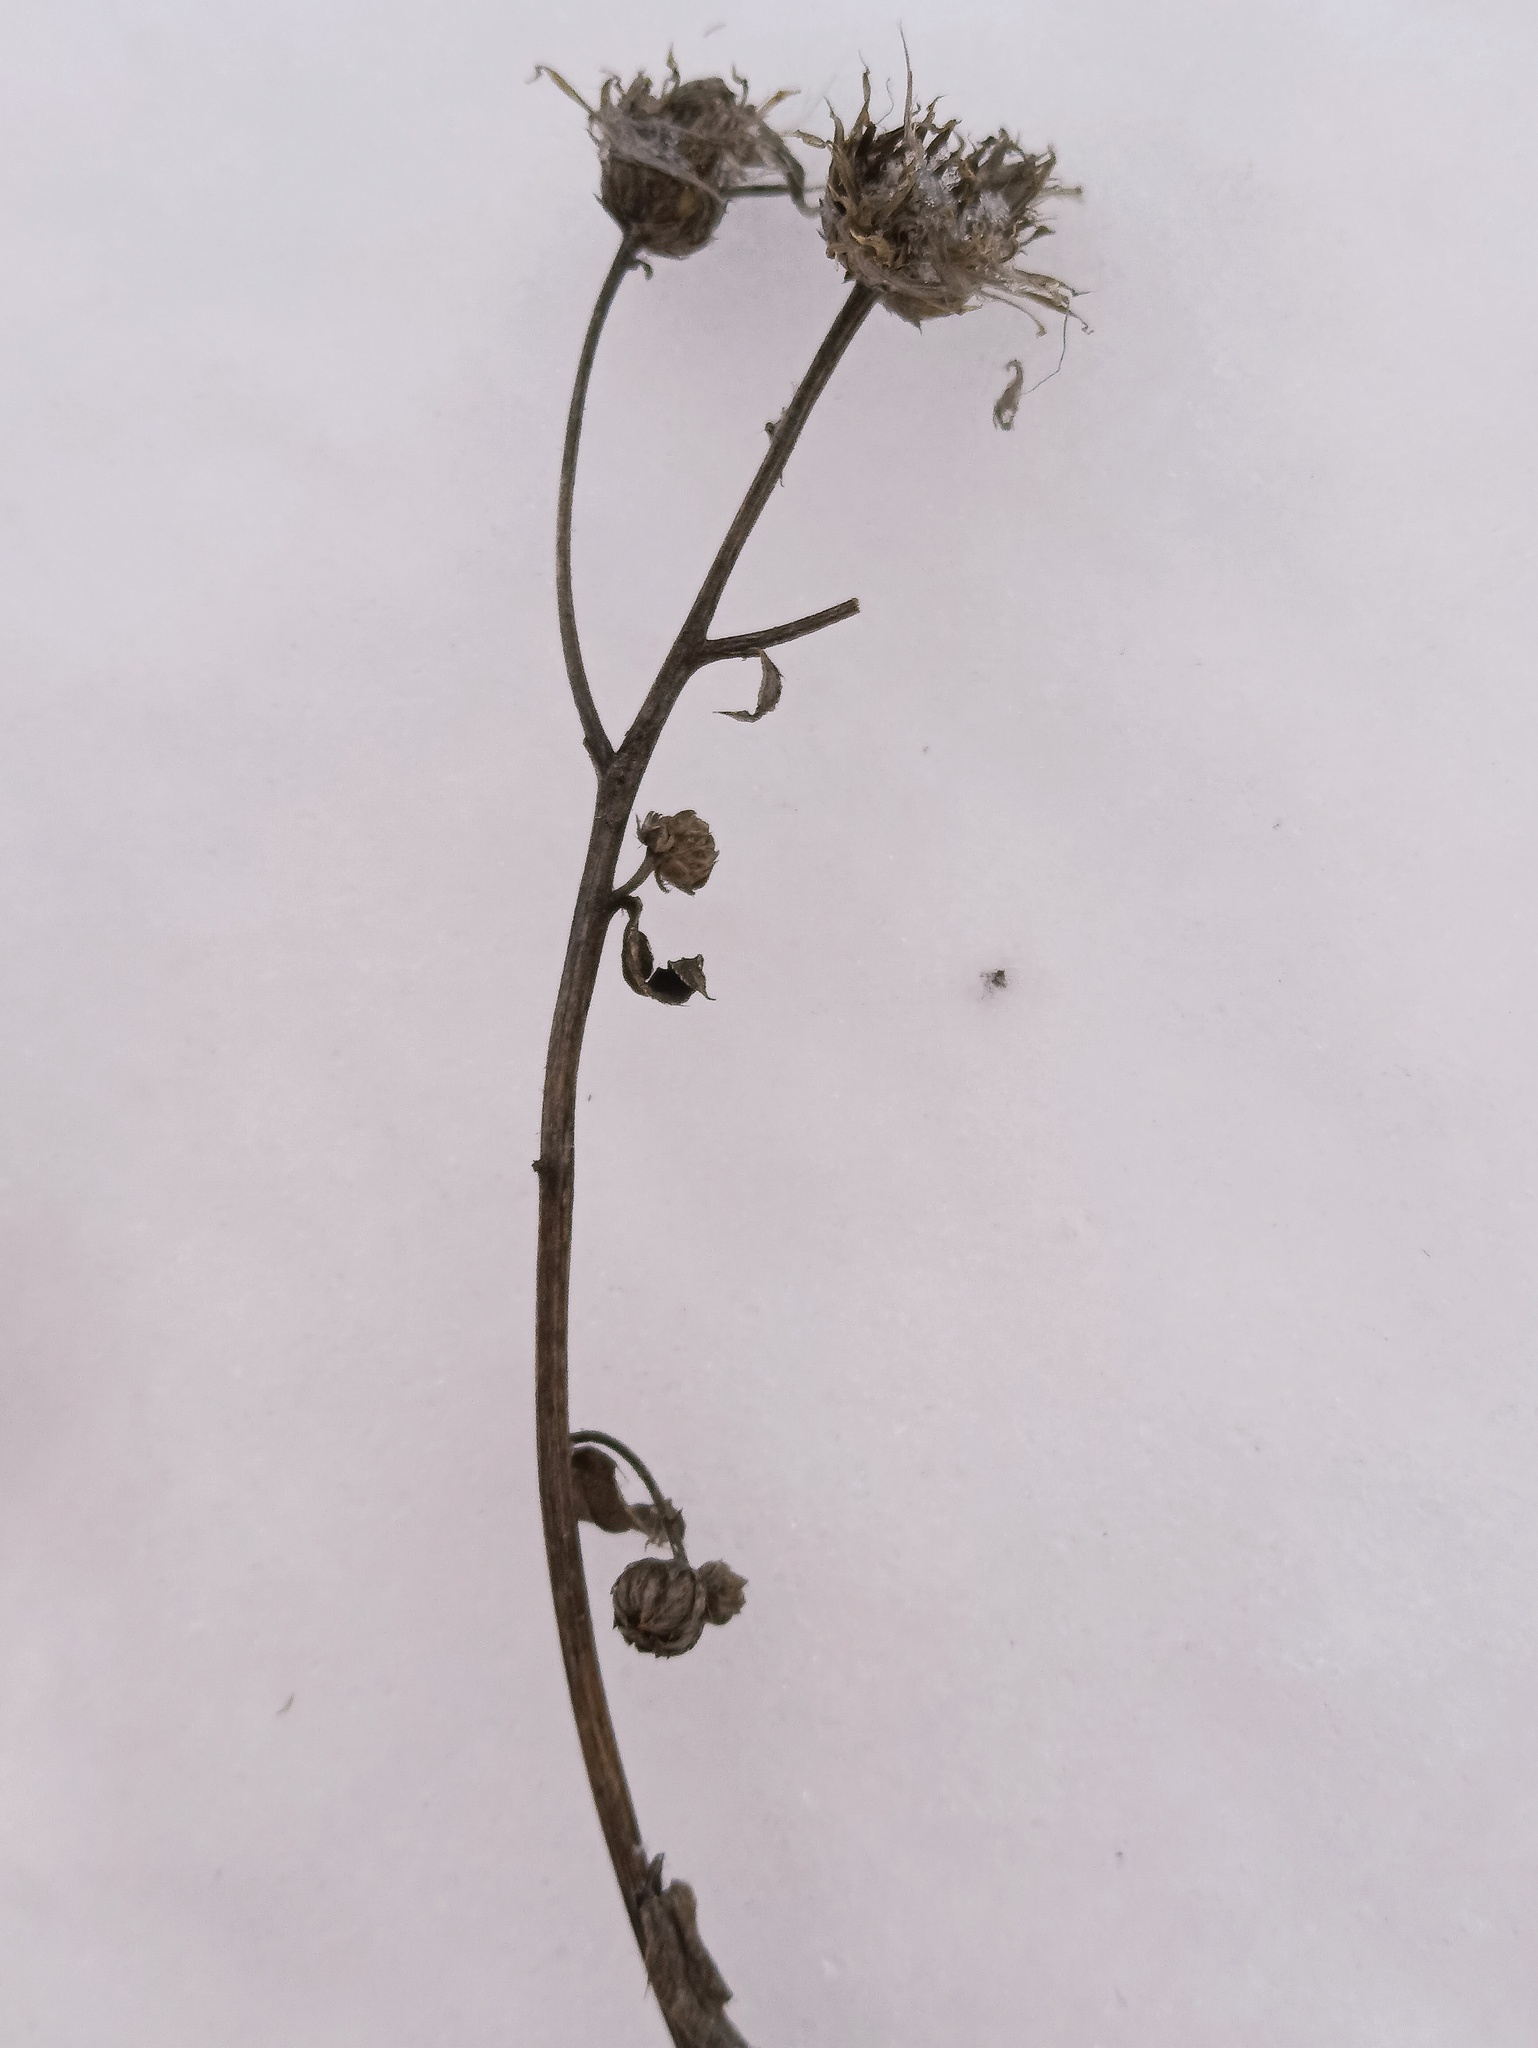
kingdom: Plantae
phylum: Tracheophyta
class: Magnoliopsida
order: Asterales
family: Asteraceae
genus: Cirsium
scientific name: Cirsium arvense
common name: Creeping thistle
